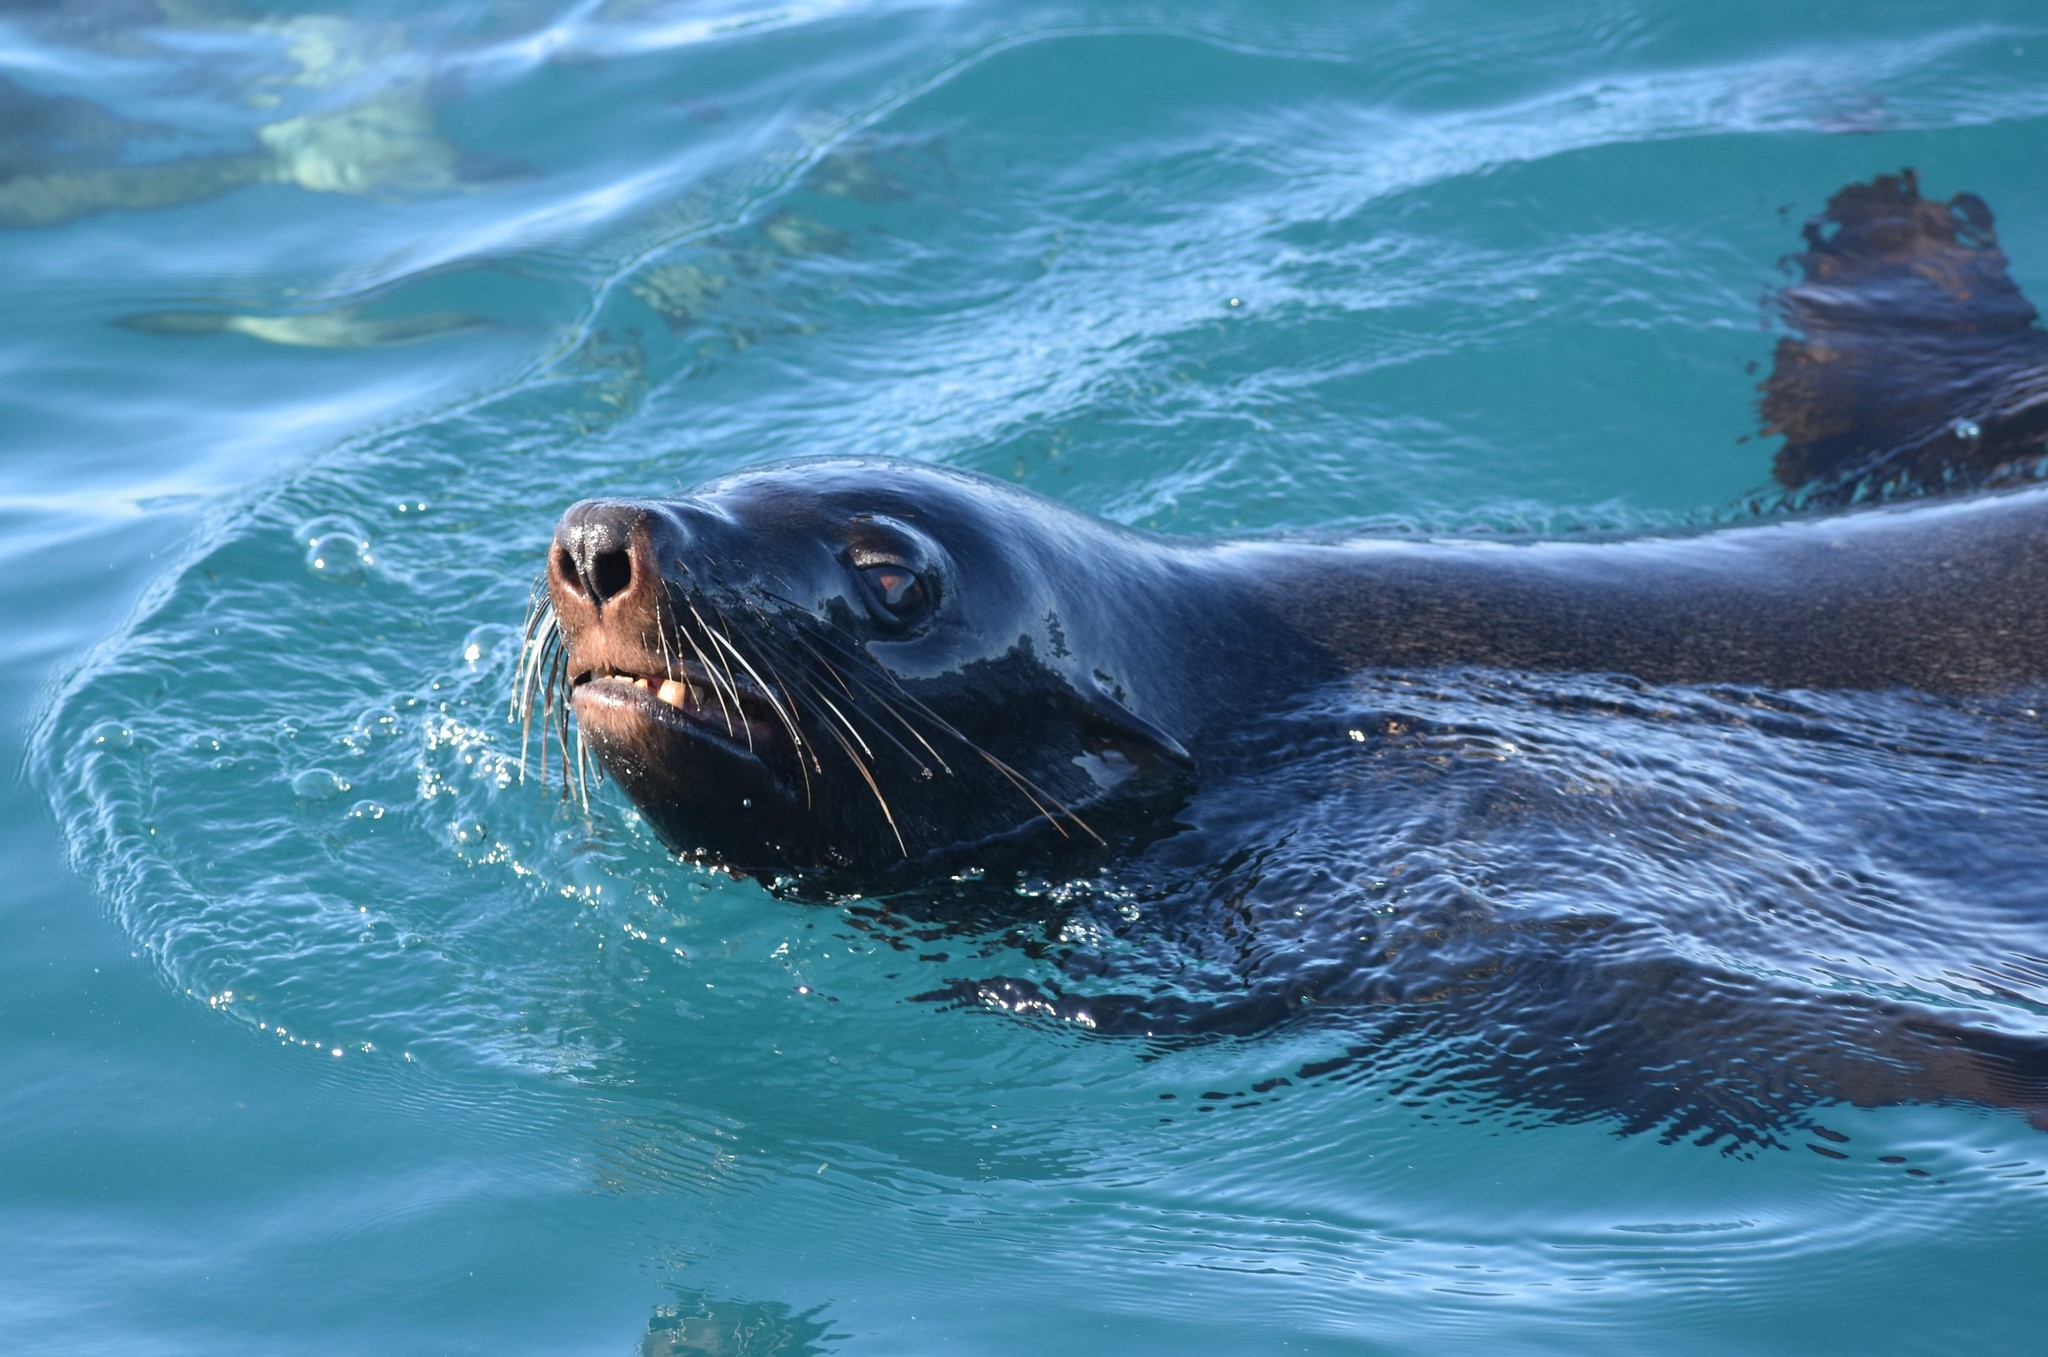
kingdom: Animalia
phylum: Chordata
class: Mammalia
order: Carnivora
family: Otariidae
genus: Arctocephalus
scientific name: Arctocephalus pusillus
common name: Brown fur seal
